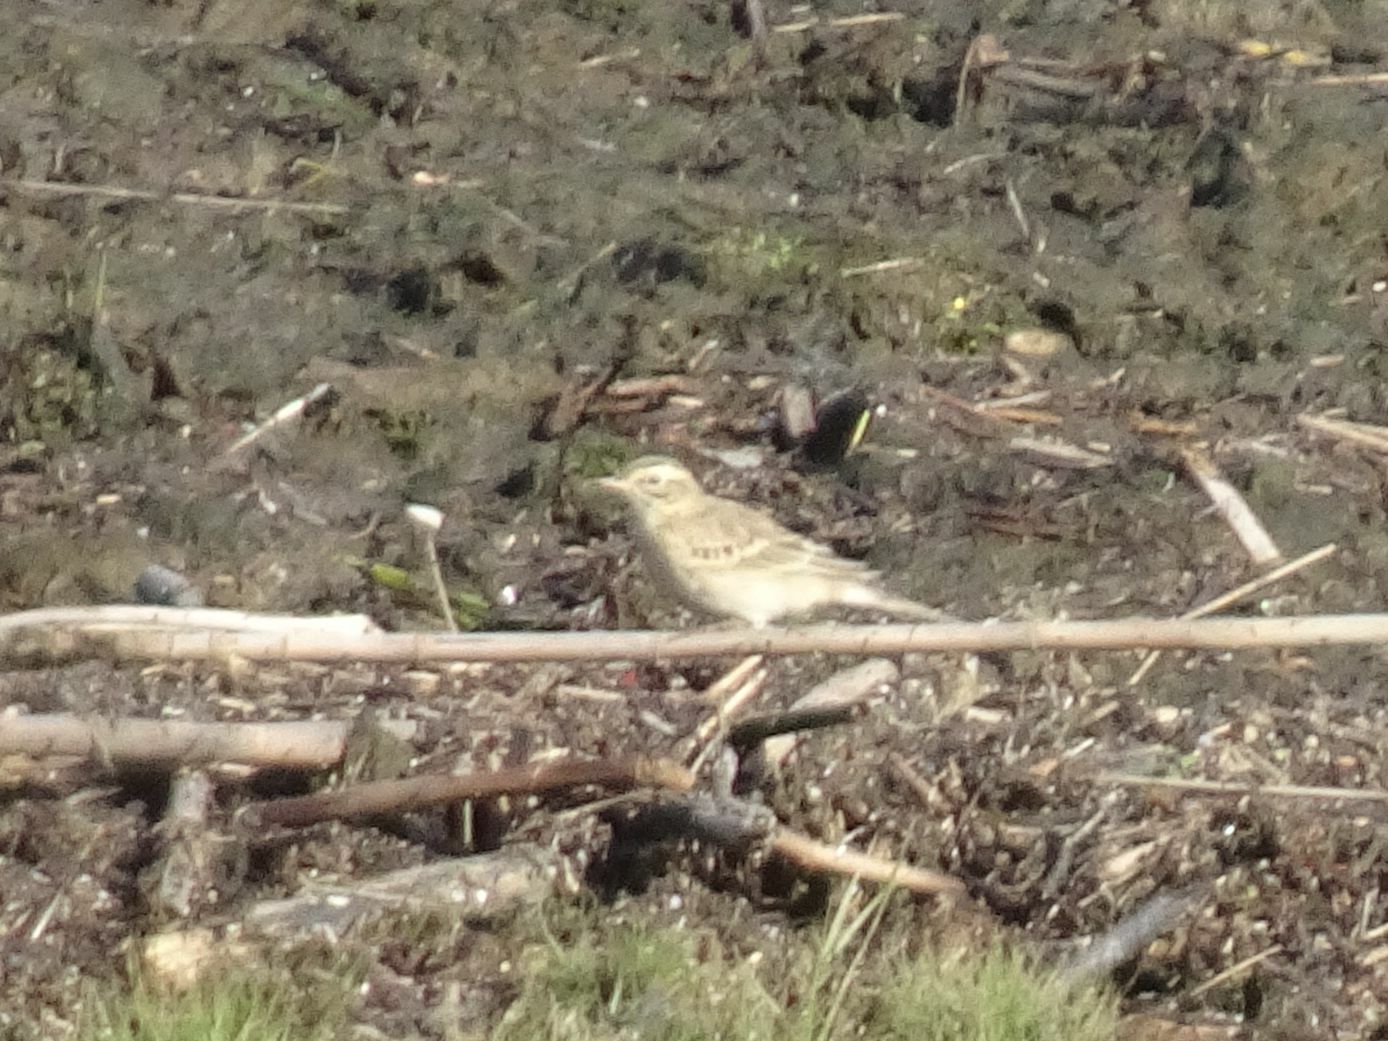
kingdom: Animalia
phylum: Chordata
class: Aves
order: Passeriformes
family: Motacillidae
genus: Anthus
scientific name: Anthus cinnamomeus
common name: African pipit
